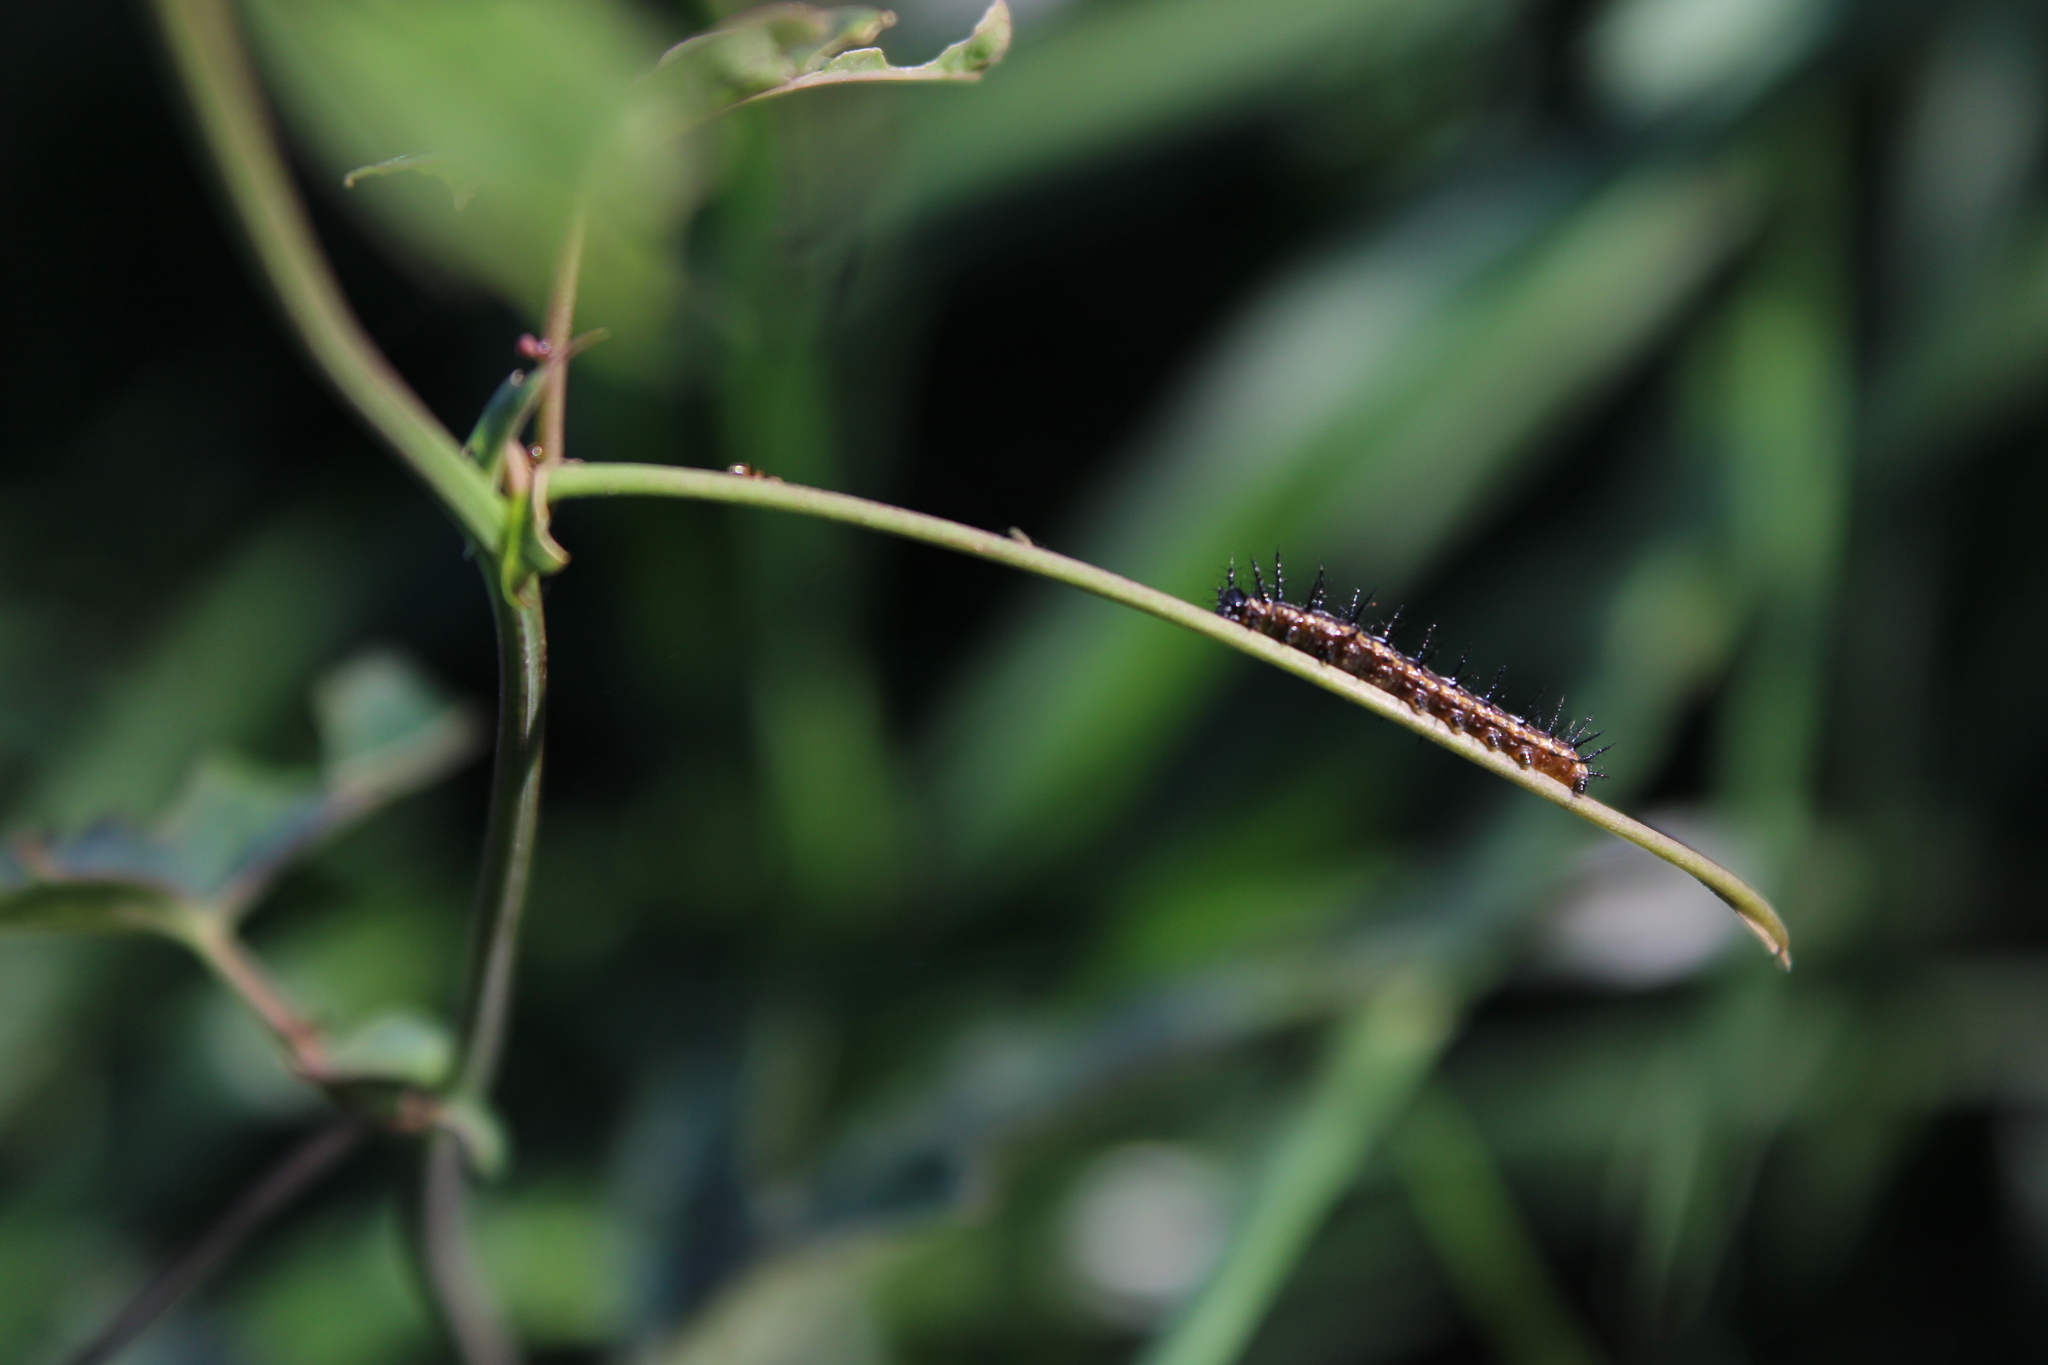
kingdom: Animalia
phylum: Arthropoda
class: Insecta
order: Lepidoptera
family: Nymphalidae
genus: Dione
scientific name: Dione vanillae
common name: Gulf fritillary
